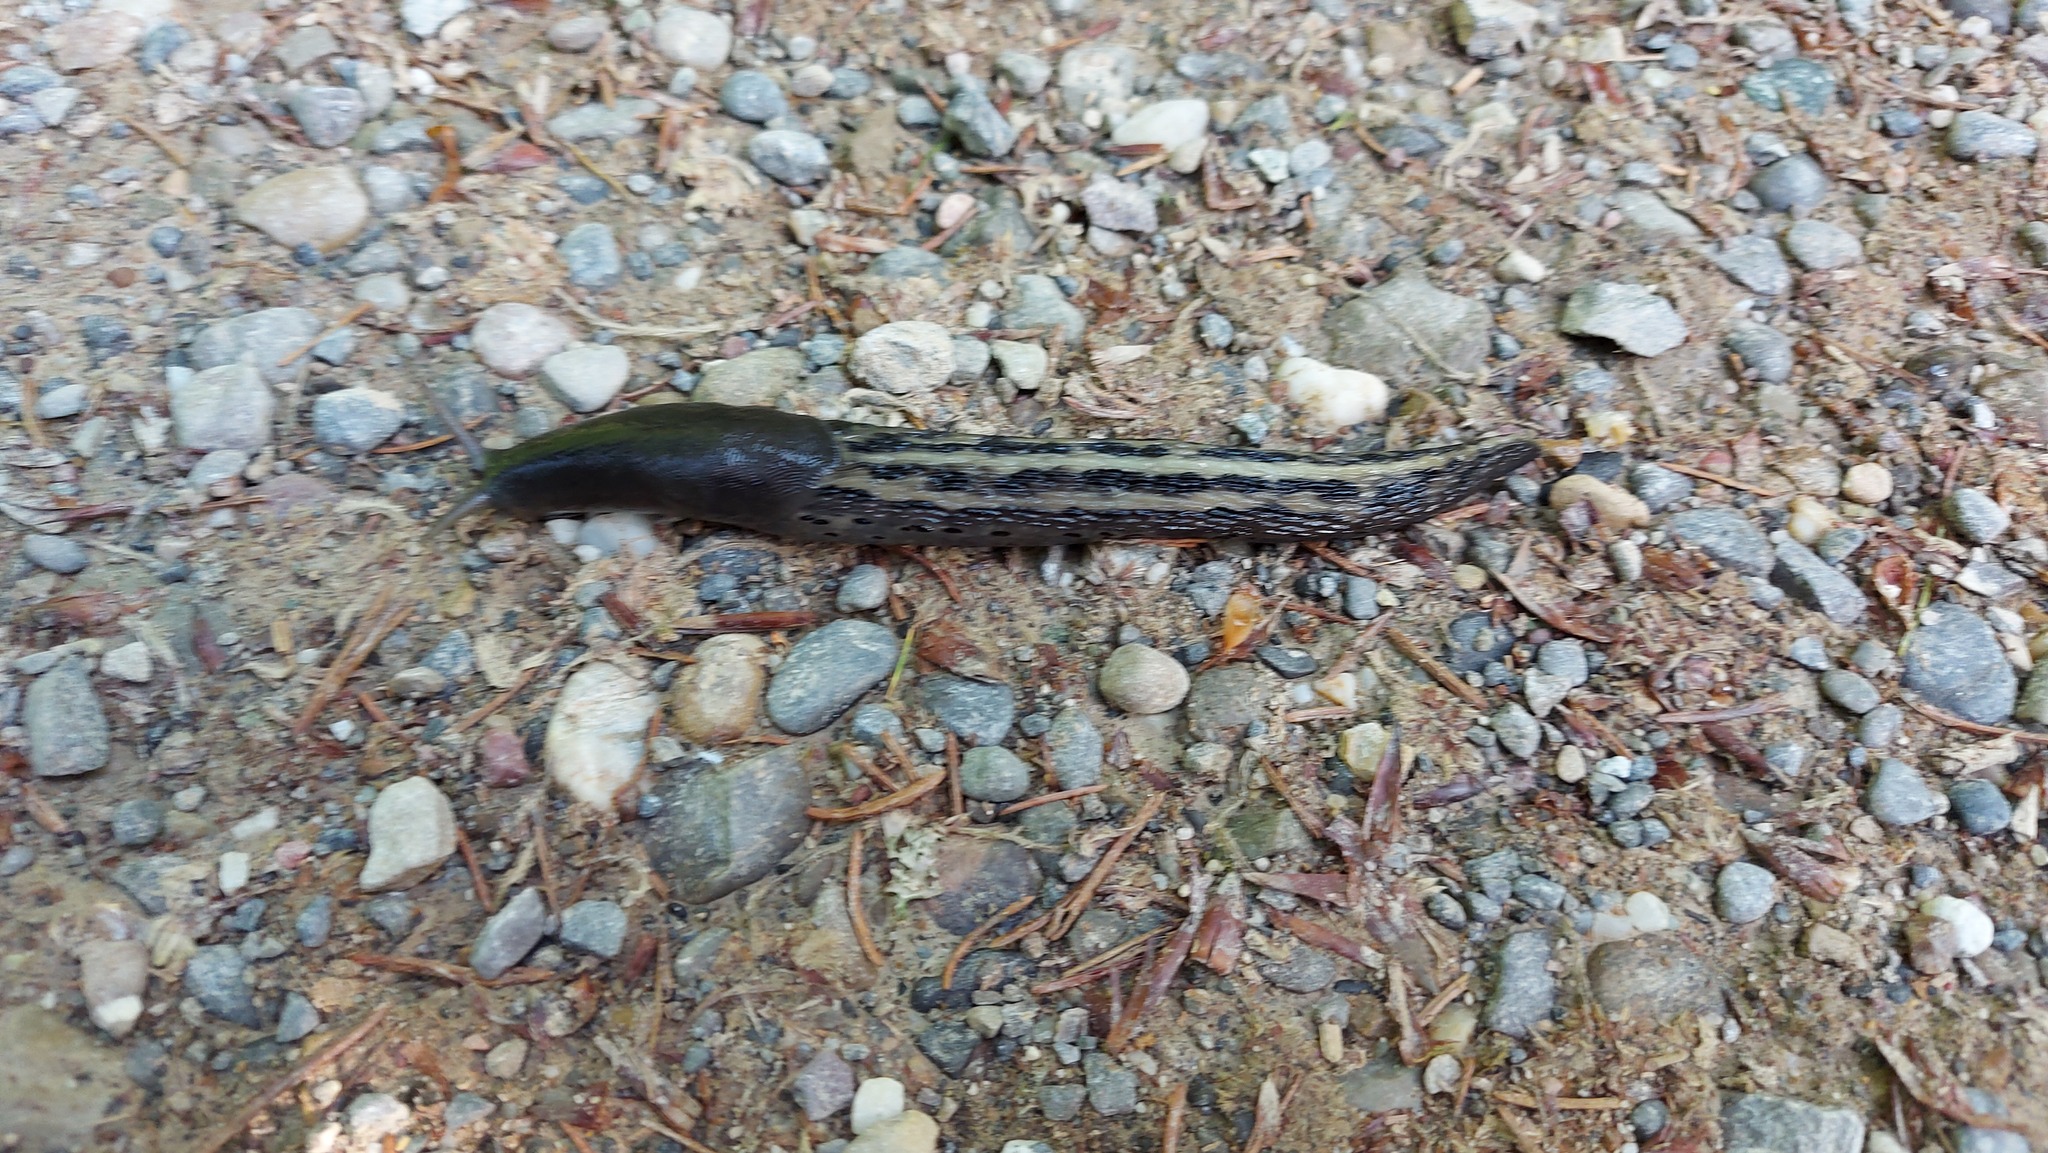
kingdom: Animalia
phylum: Mollusca
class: Gastropoda
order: Stylommatophora
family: Limacidae
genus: Limax
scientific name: Limax cinereoniger
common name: Ash-black slug
